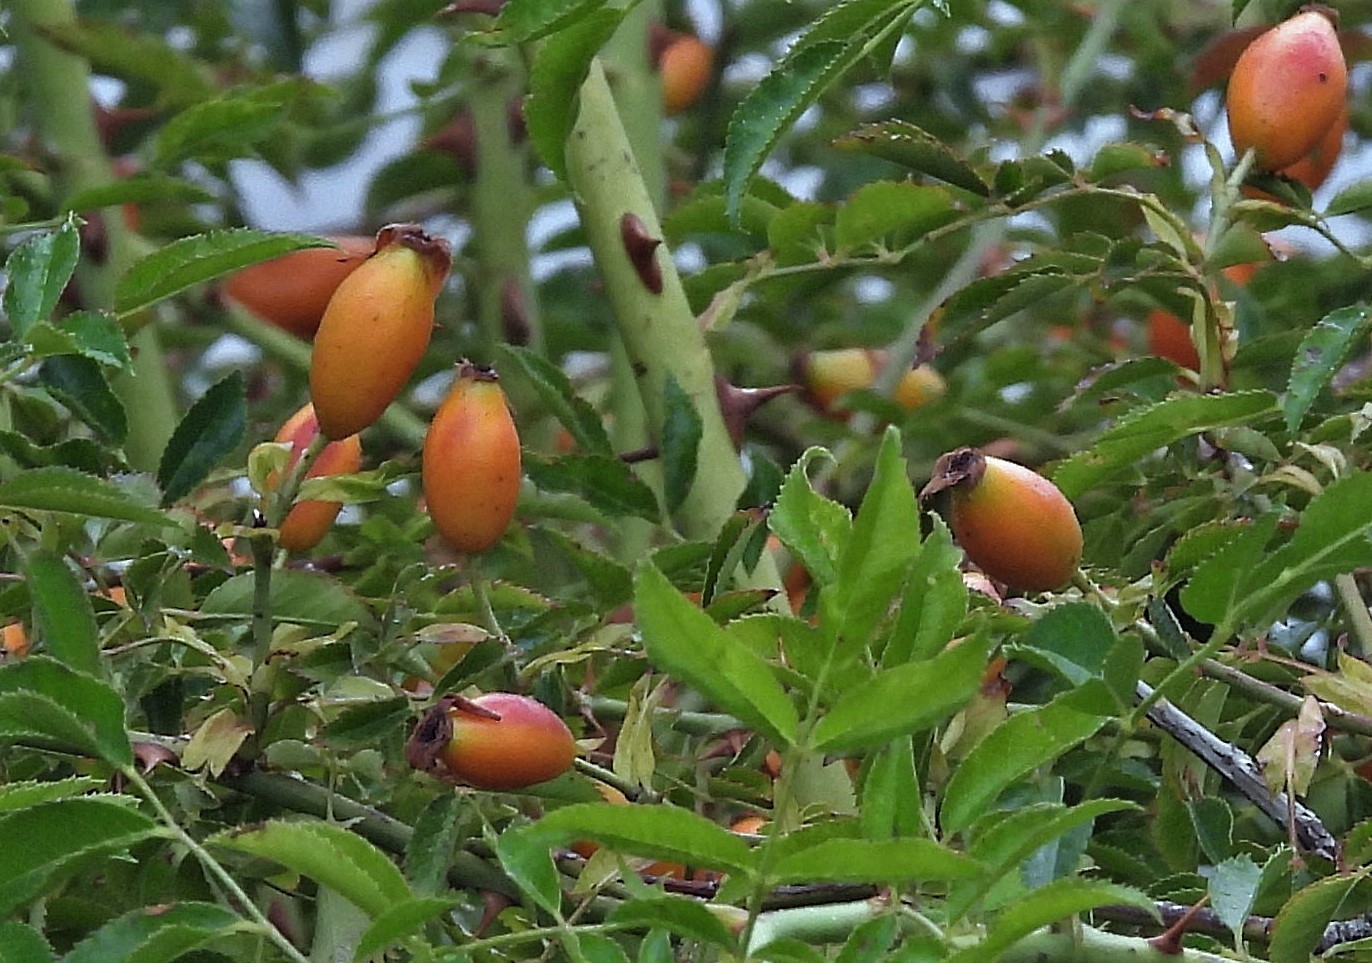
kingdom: Plantae
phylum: Tracheophyta
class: Magnoliopsida
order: Rosales
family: Rosaceae
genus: Rosa
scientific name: Rosa rubiginosa
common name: Sweet-briar
